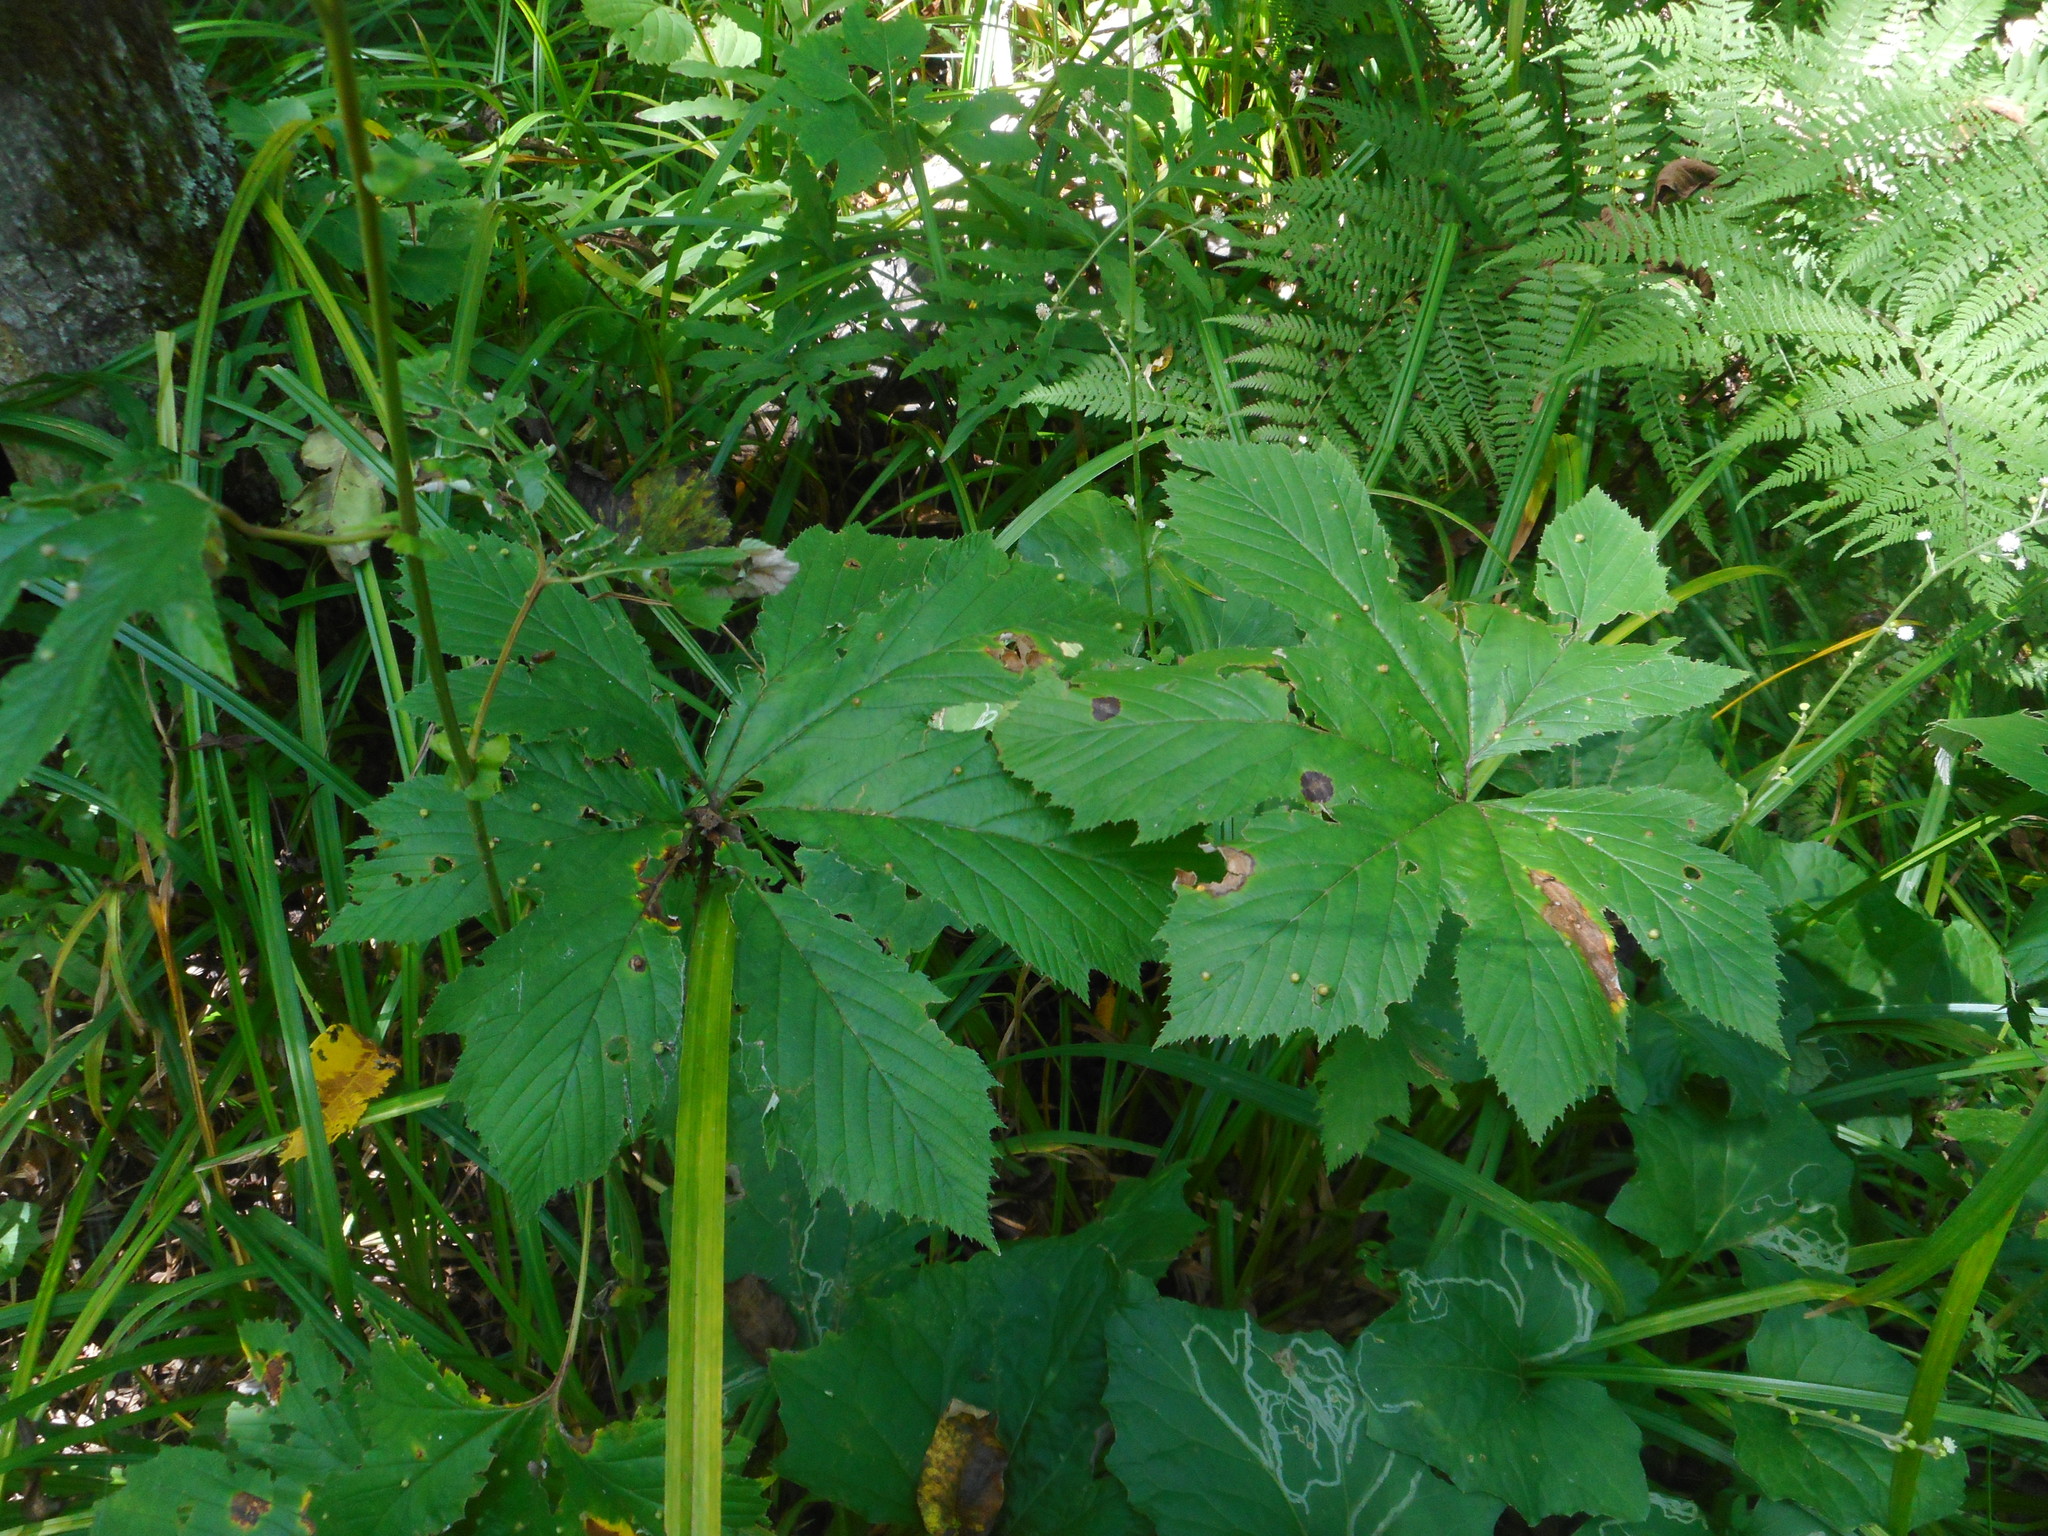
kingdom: Plantae
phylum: Tracheophyta
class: Magnoliopsida
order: Rosales
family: Rosaceae
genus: Filipendula
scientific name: Filipendula digitata
